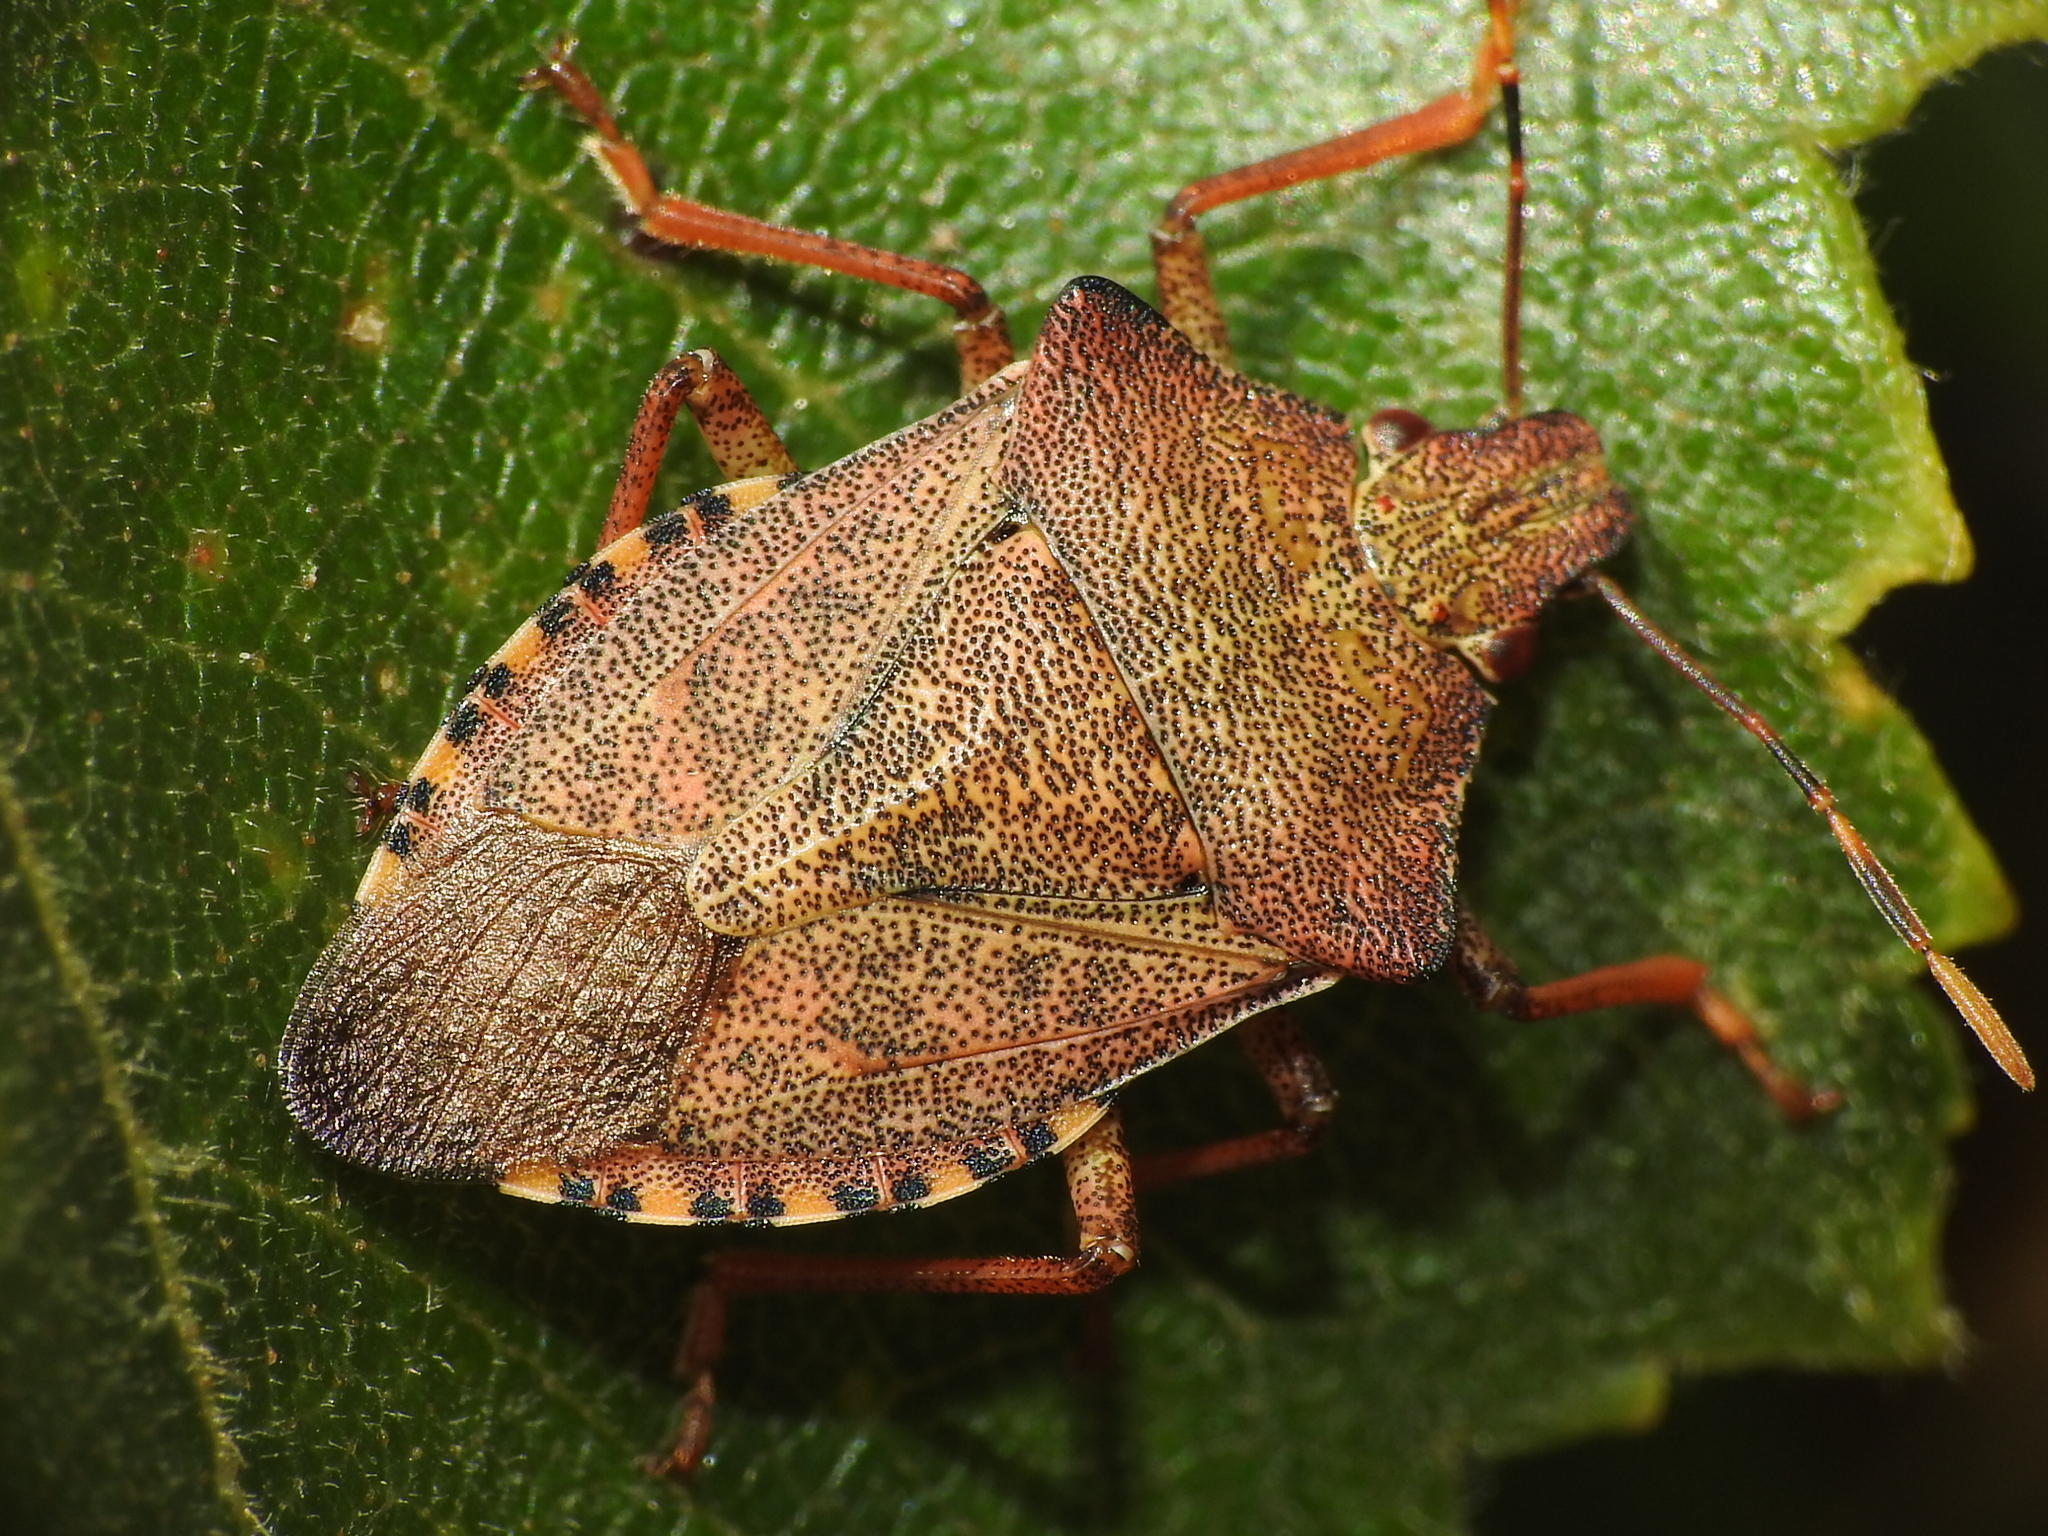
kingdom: Animalia
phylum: Arthropoda
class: Insecta
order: Hemiptera
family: Pentatomidae
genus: Arma
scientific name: Arma custos
